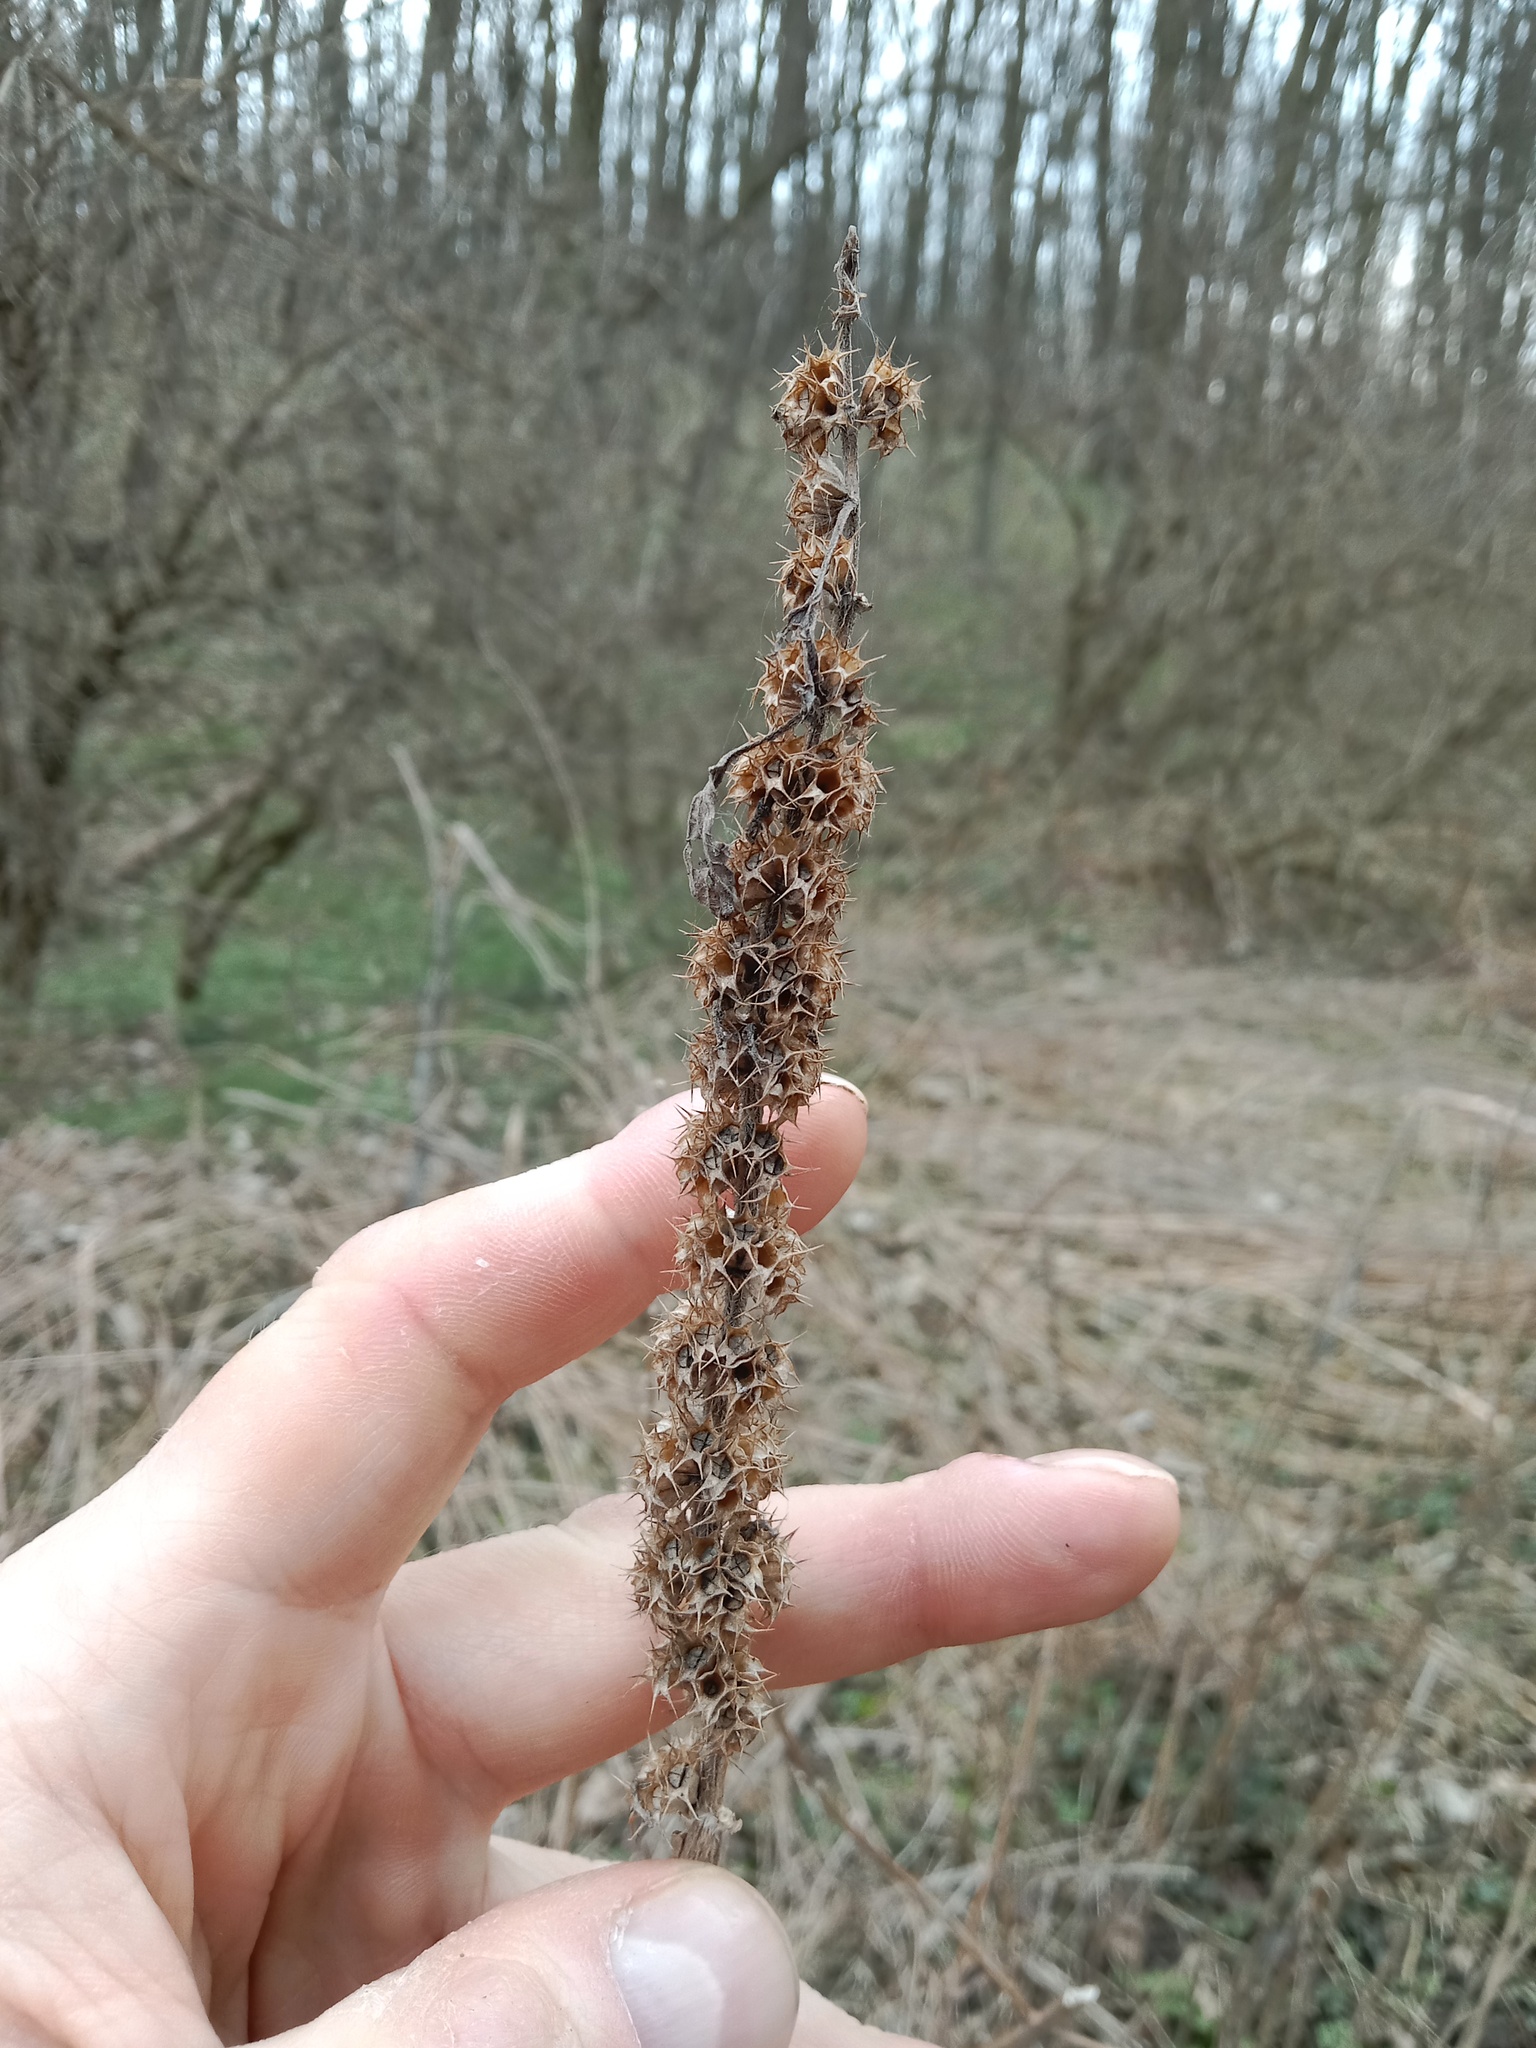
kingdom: Plantae
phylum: Tracheophyta
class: Magnoliopsida
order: Lamiales
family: Lamiaceae
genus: Leonurus
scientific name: Leonurus quinquelobatus
